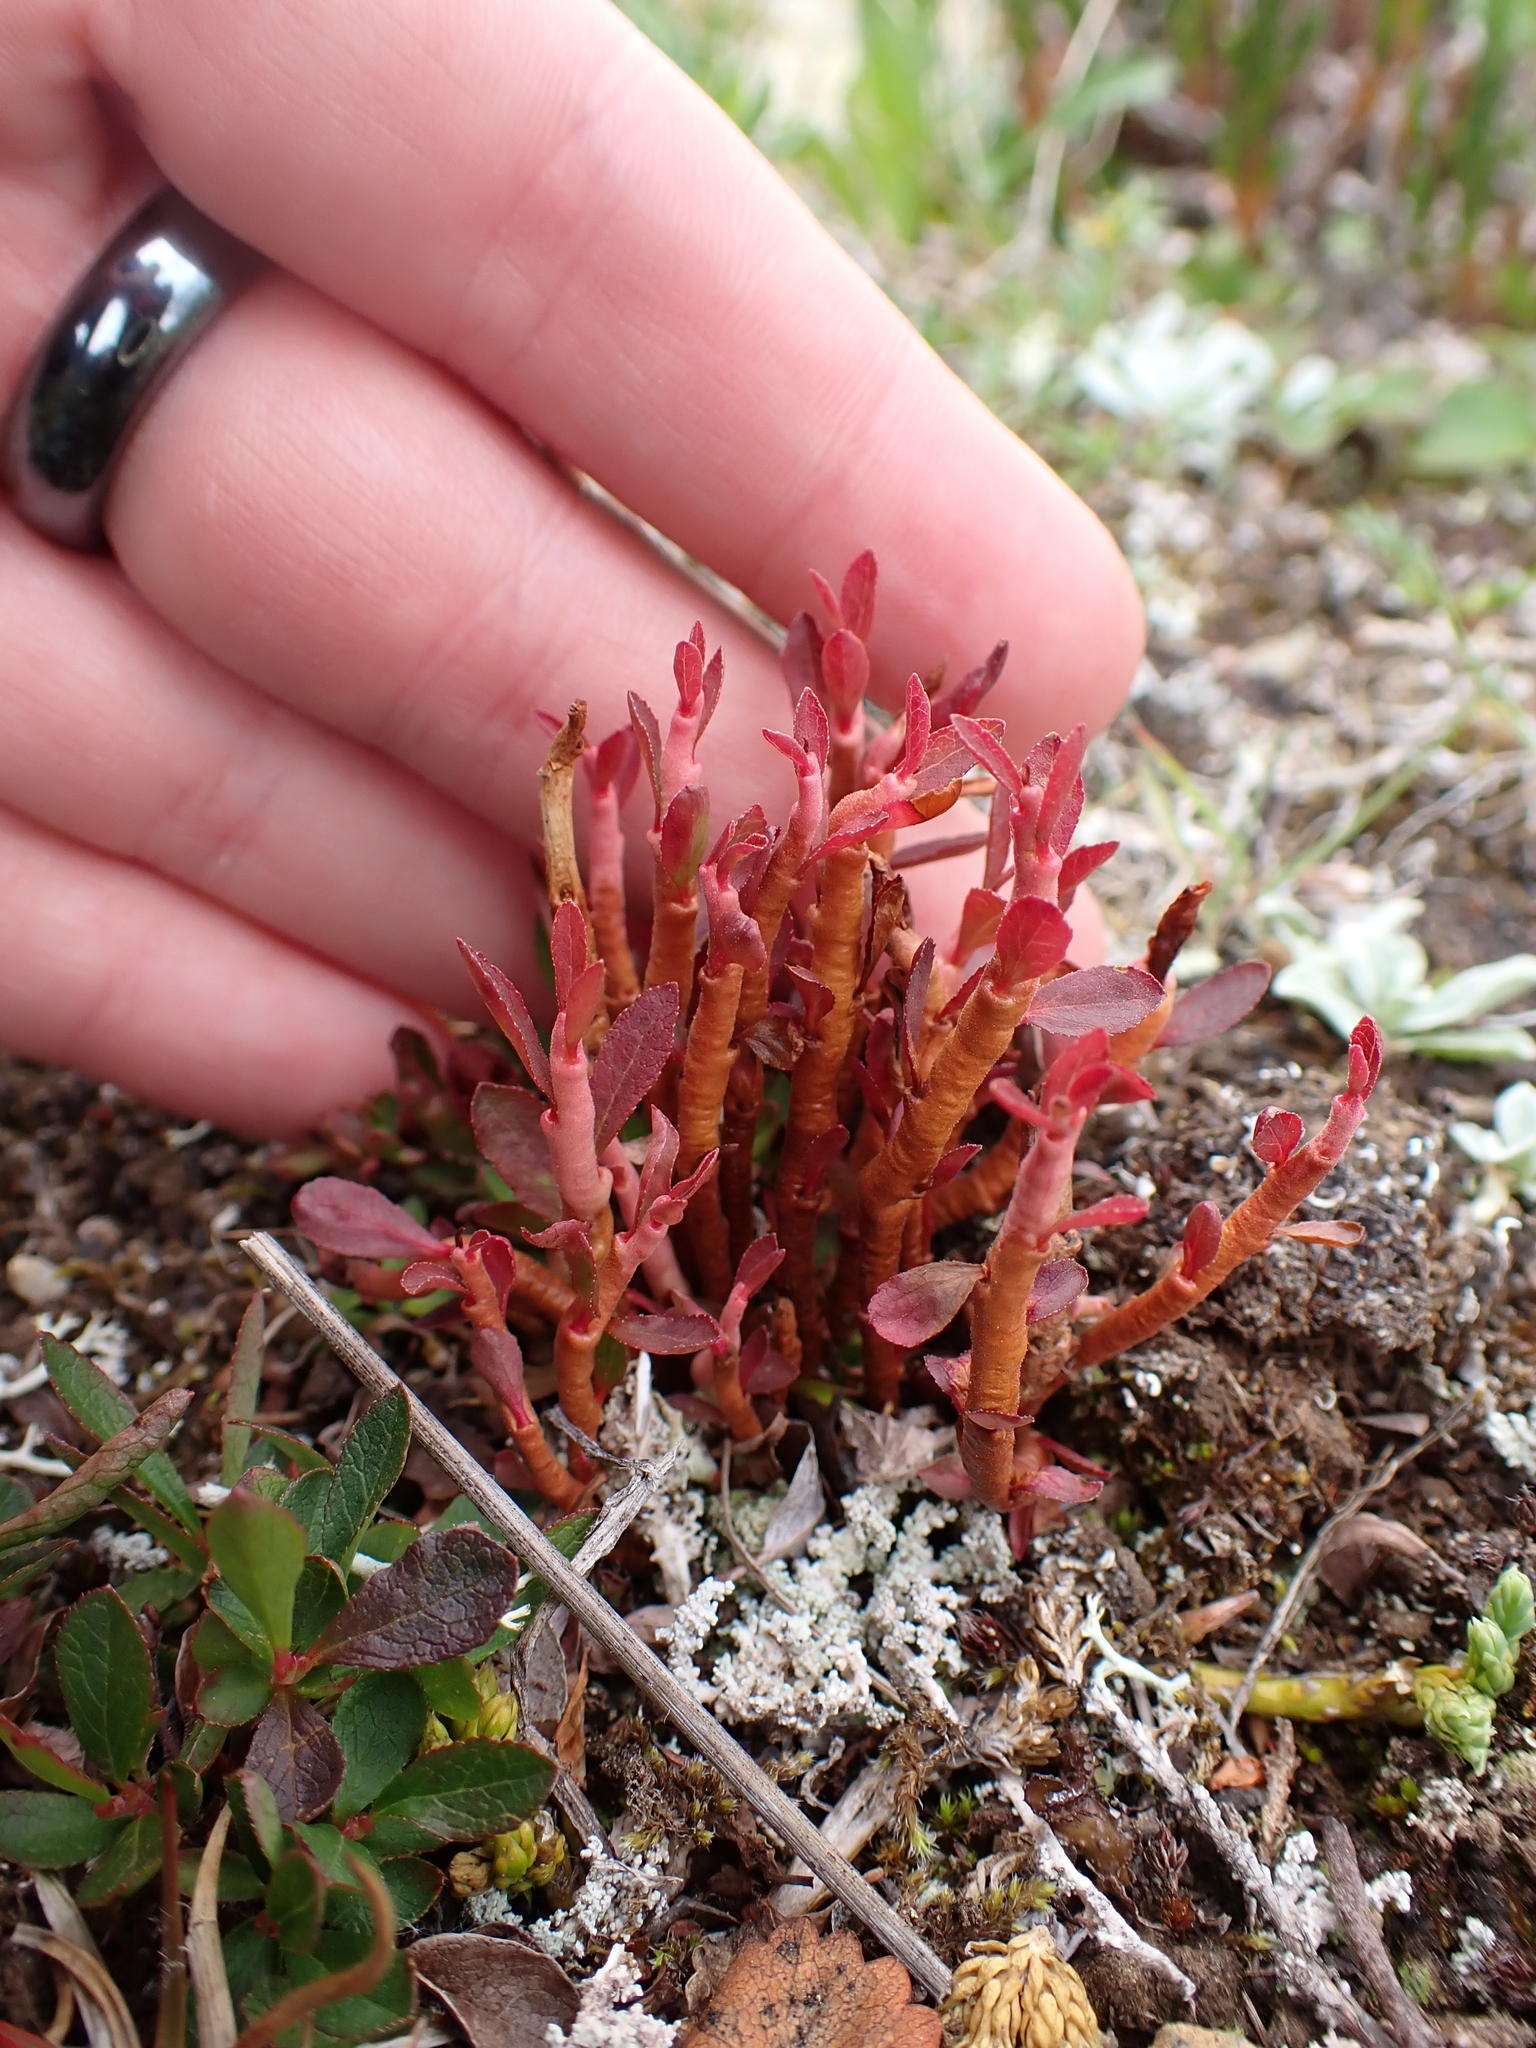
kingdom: Fungi
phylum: Basidiomycota
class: Pucciniomycetes
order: Pucciniales
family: Pucciniastraceae
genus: Calyptospora
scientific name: Calyptospora
